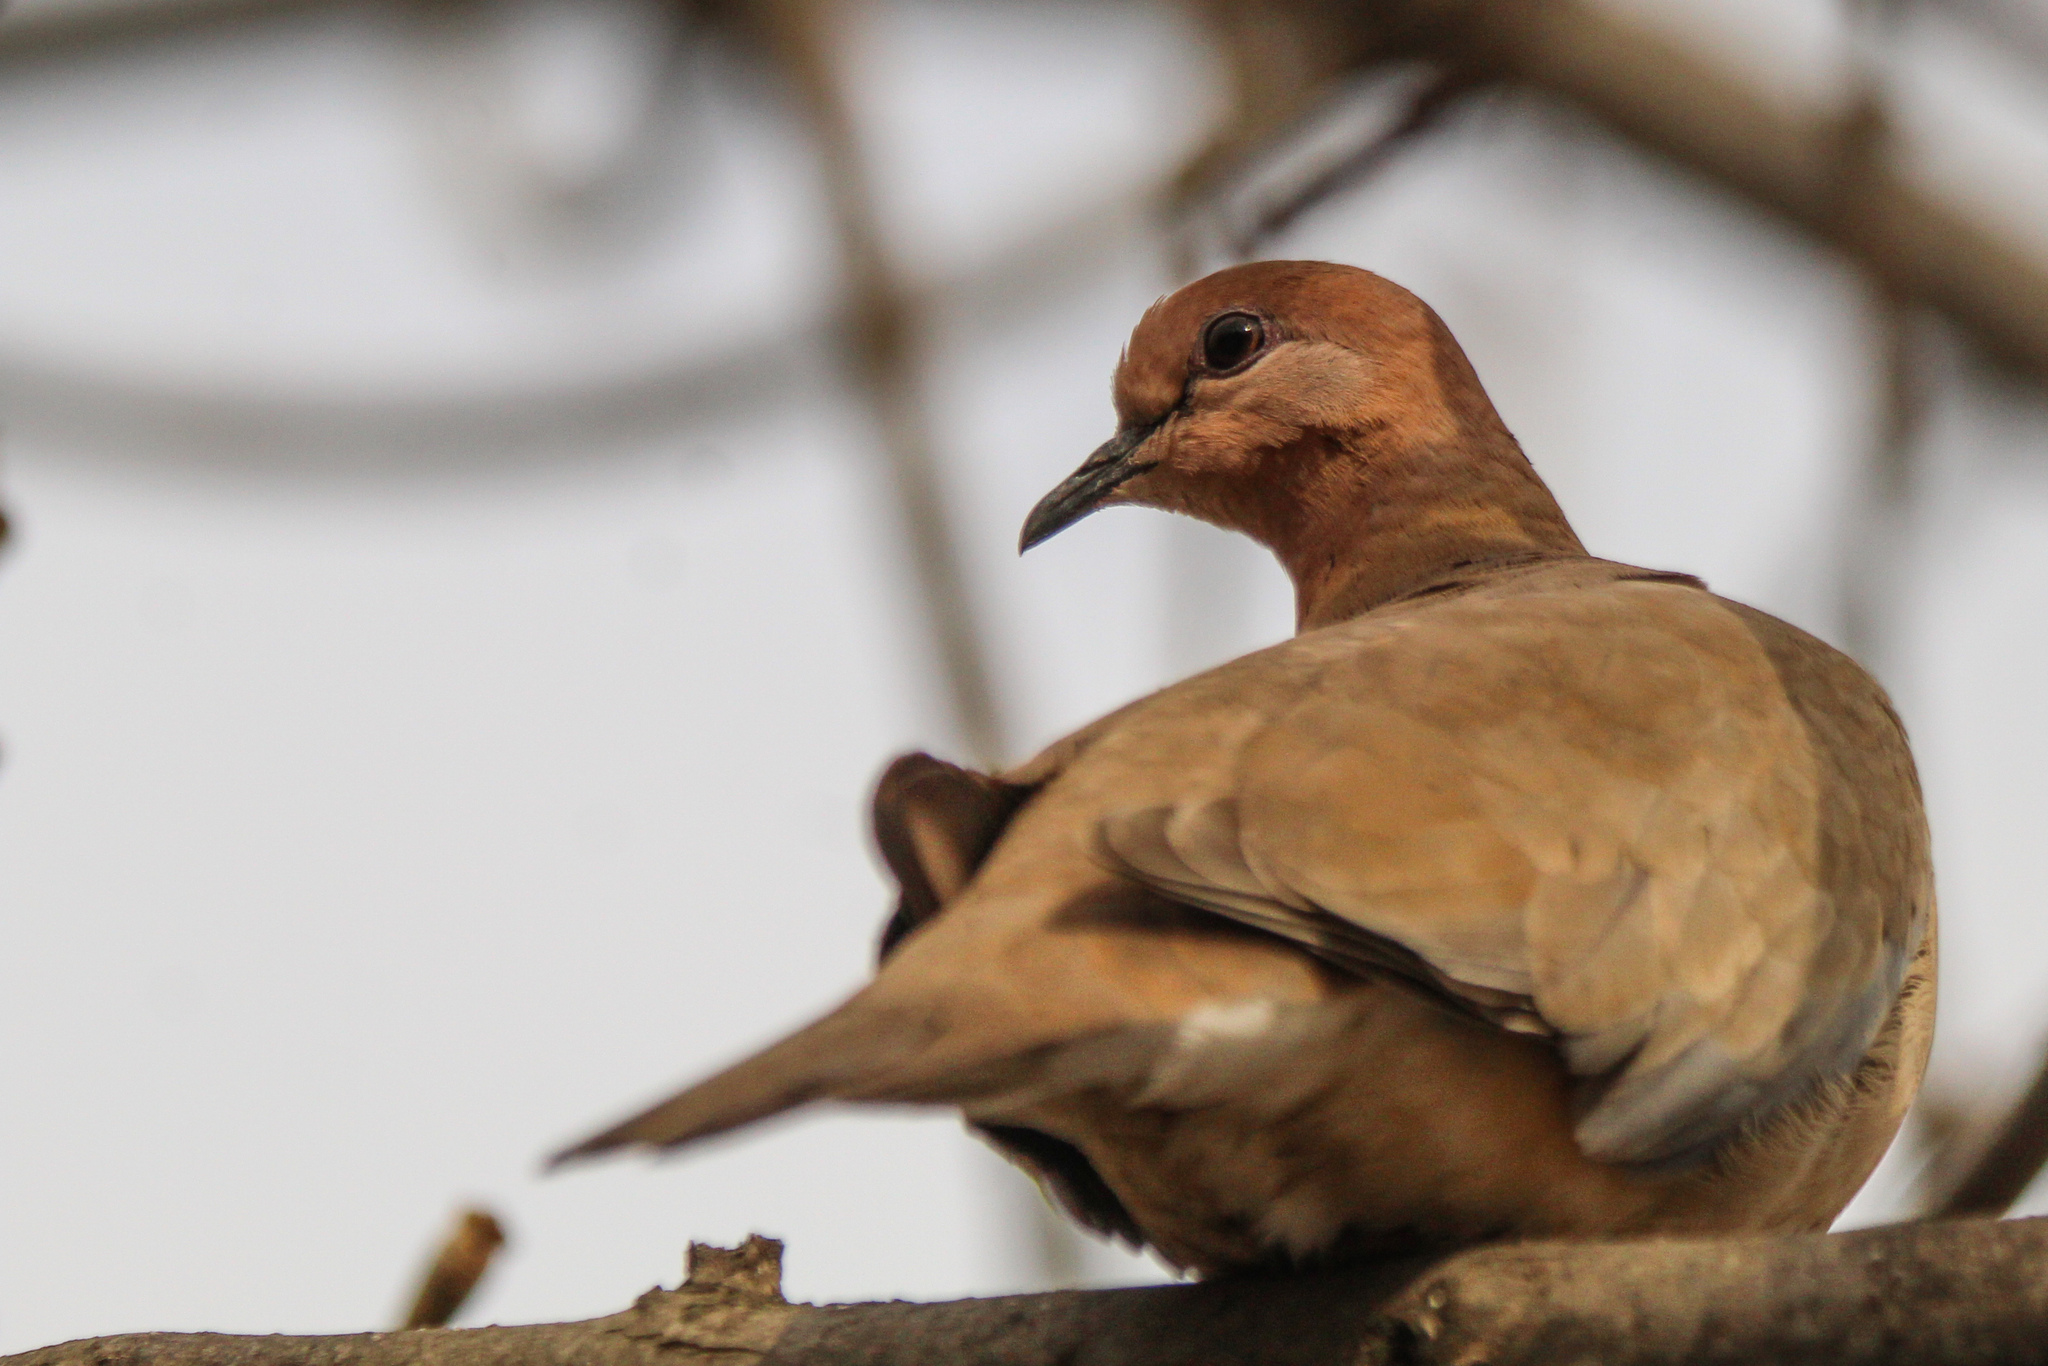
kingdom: Animalia
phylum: Chordata
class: Aves
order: Columbiformes
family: Columbidae
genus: Spilopelia
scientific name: Spilopelia senegalensis
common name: Laughing dove
